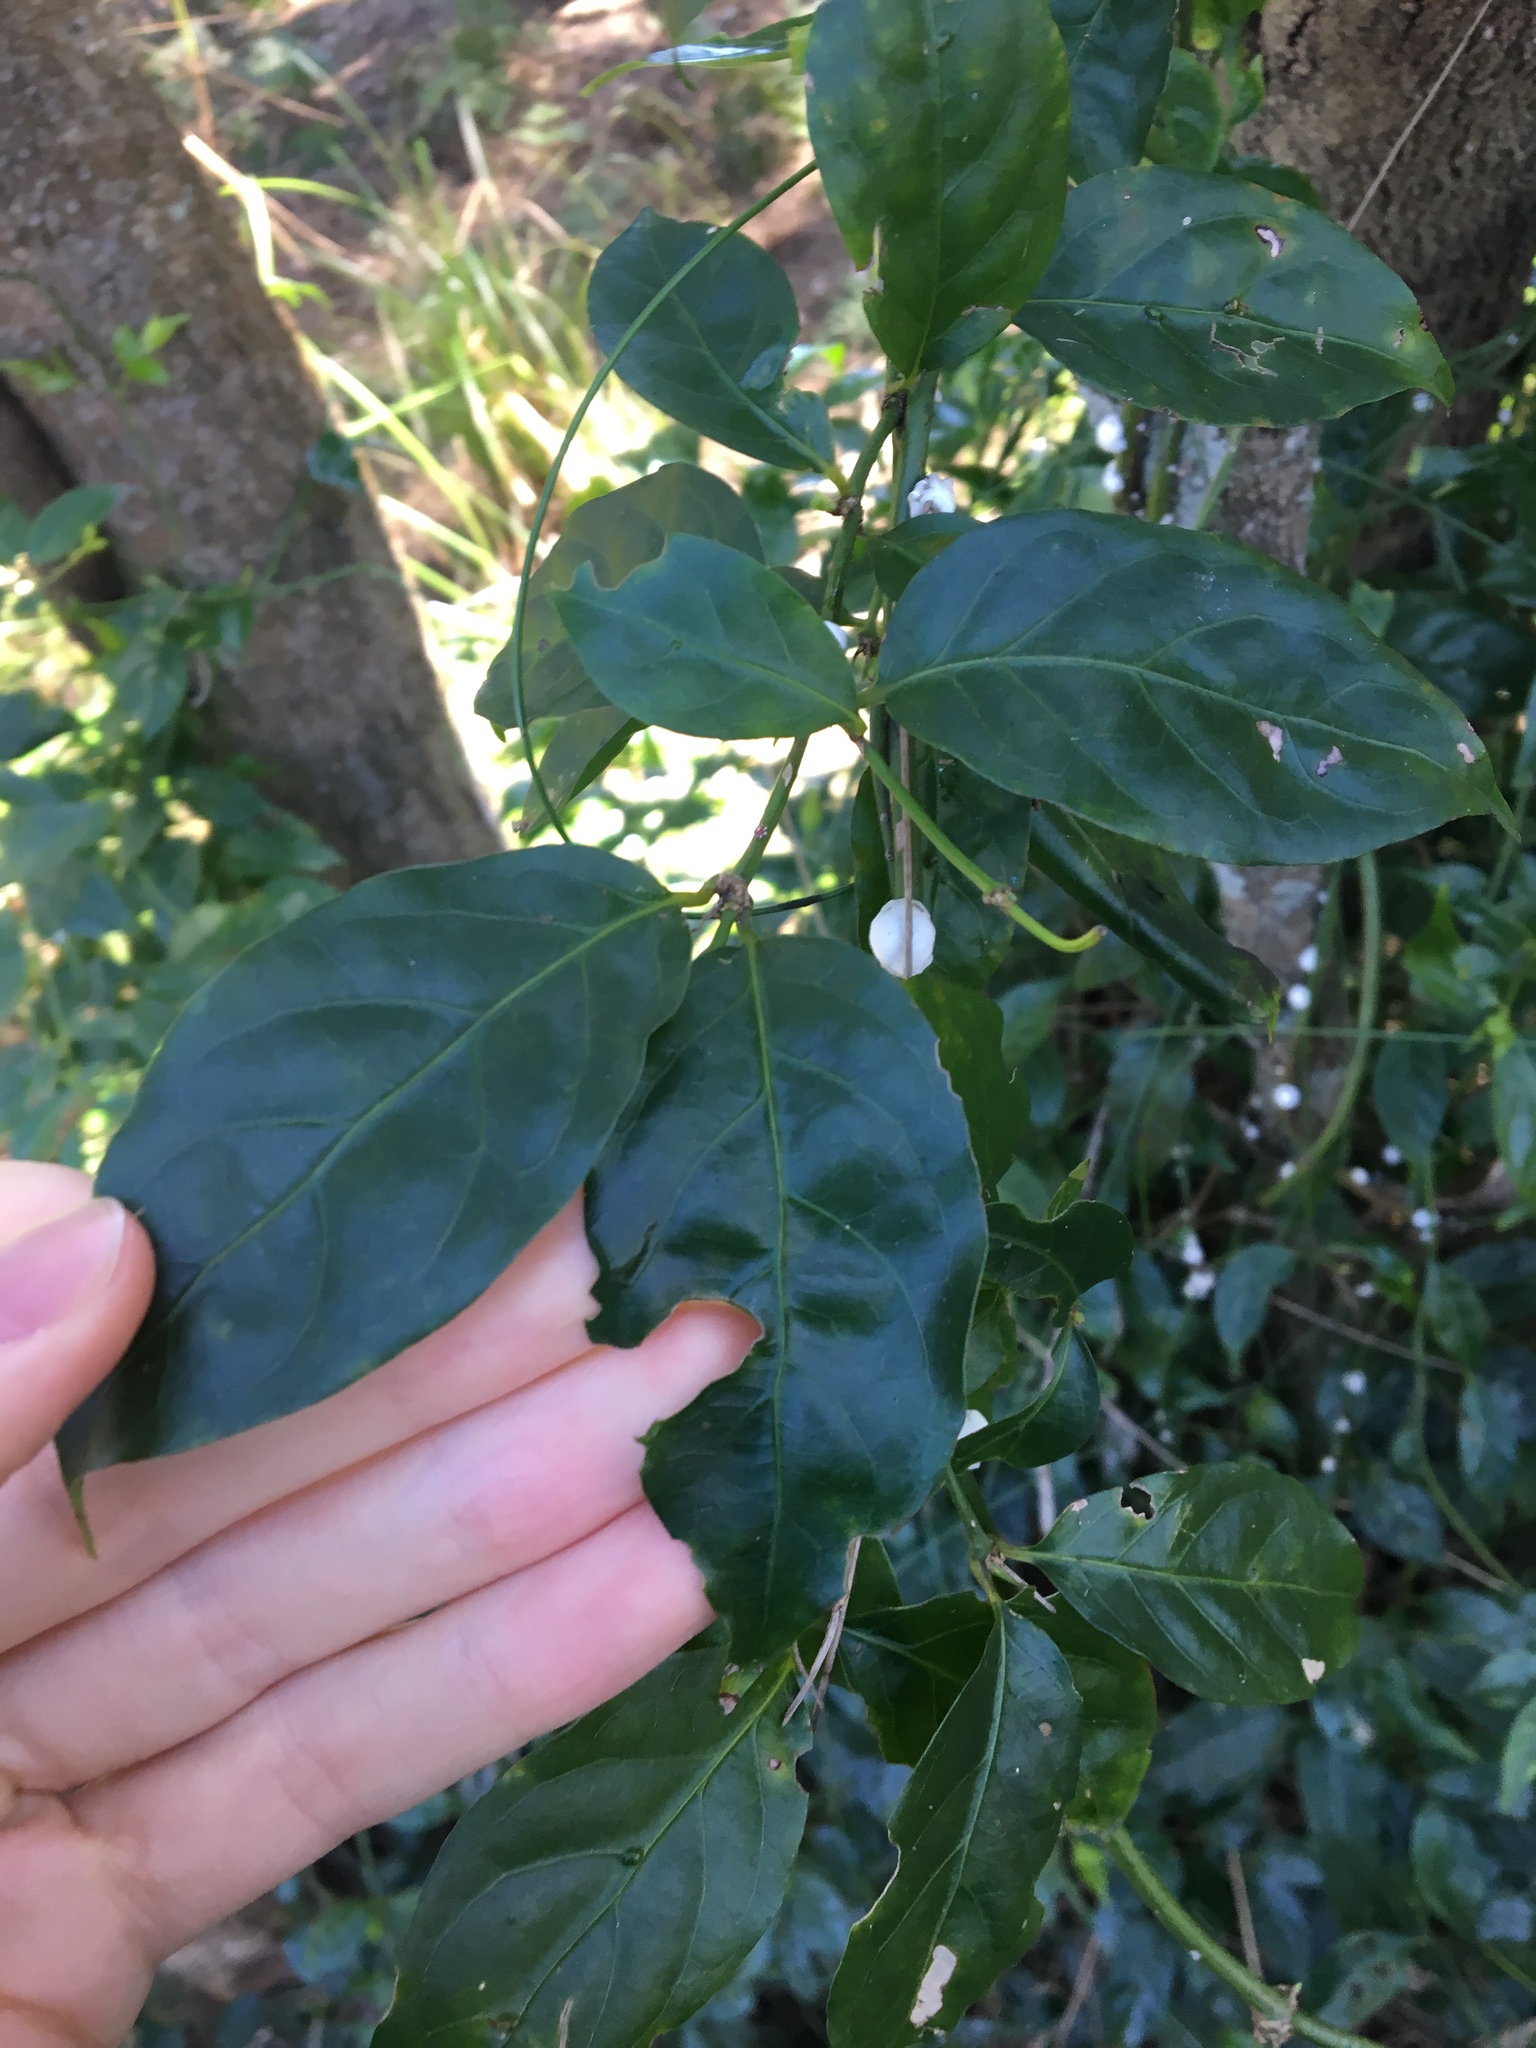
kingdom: Plantae
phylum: Tracheophyta
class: Magnoliopsida
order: Gentianales
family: Rubiaceae
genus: Gynochthodes
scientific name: Gynochthodes jasminoides
